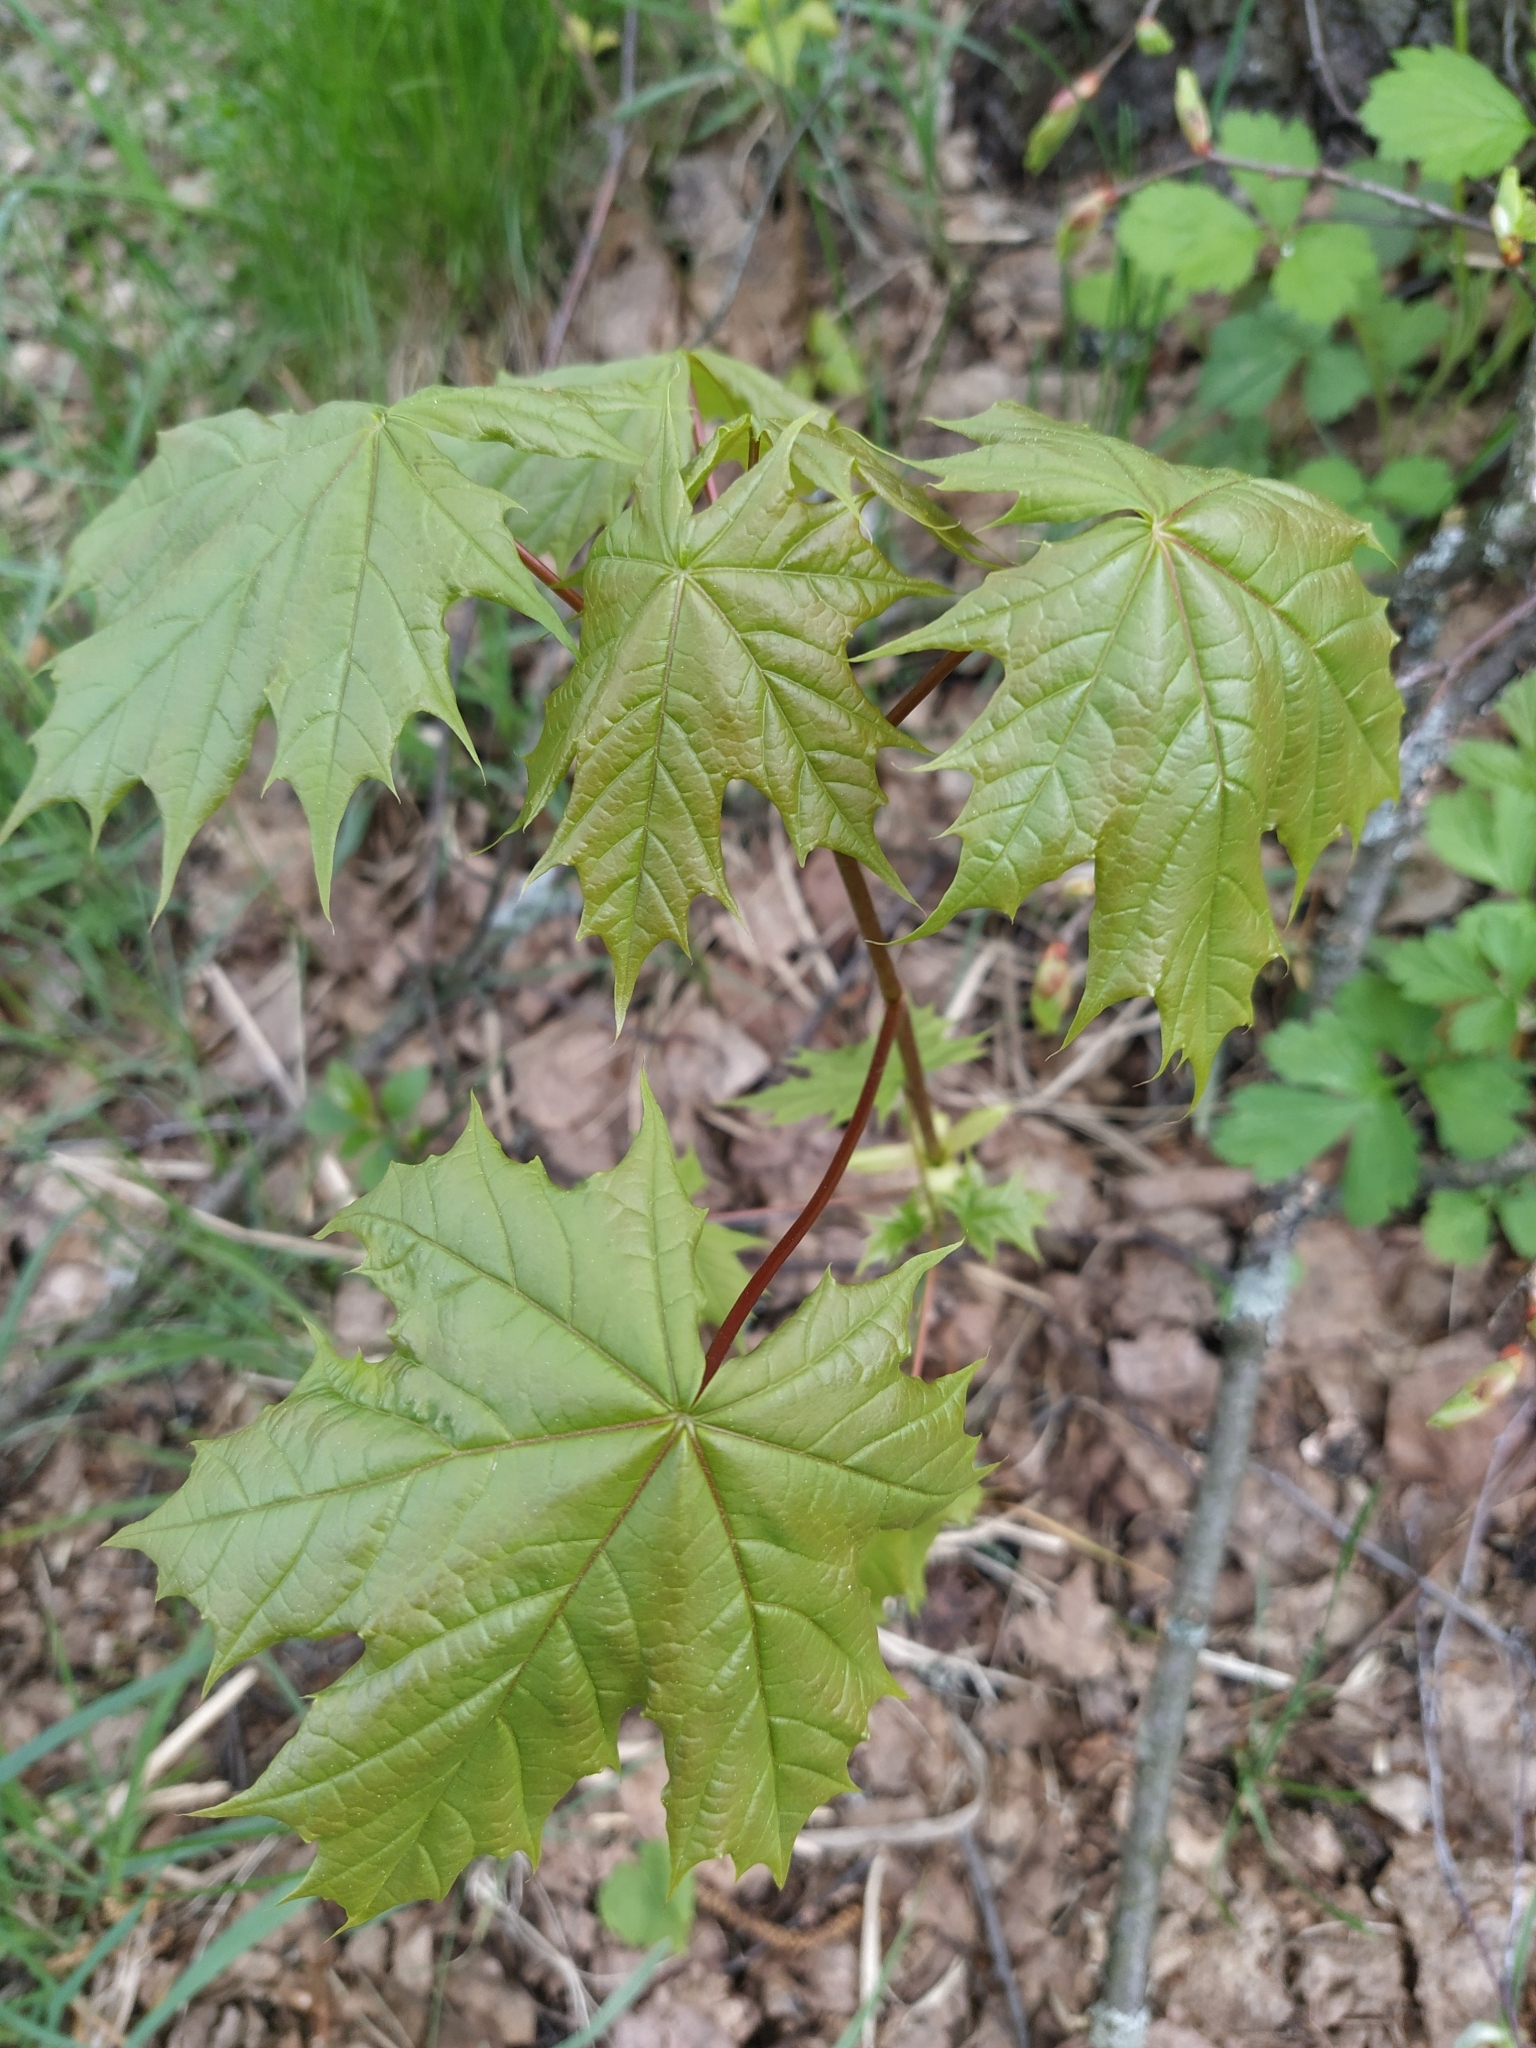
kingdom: Plantae
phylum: Tracheophyta
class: Magnoliopsida
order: Sapindales
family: Sapindaceae
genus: Acer
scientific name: Acer platanoides
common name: Norway maple
